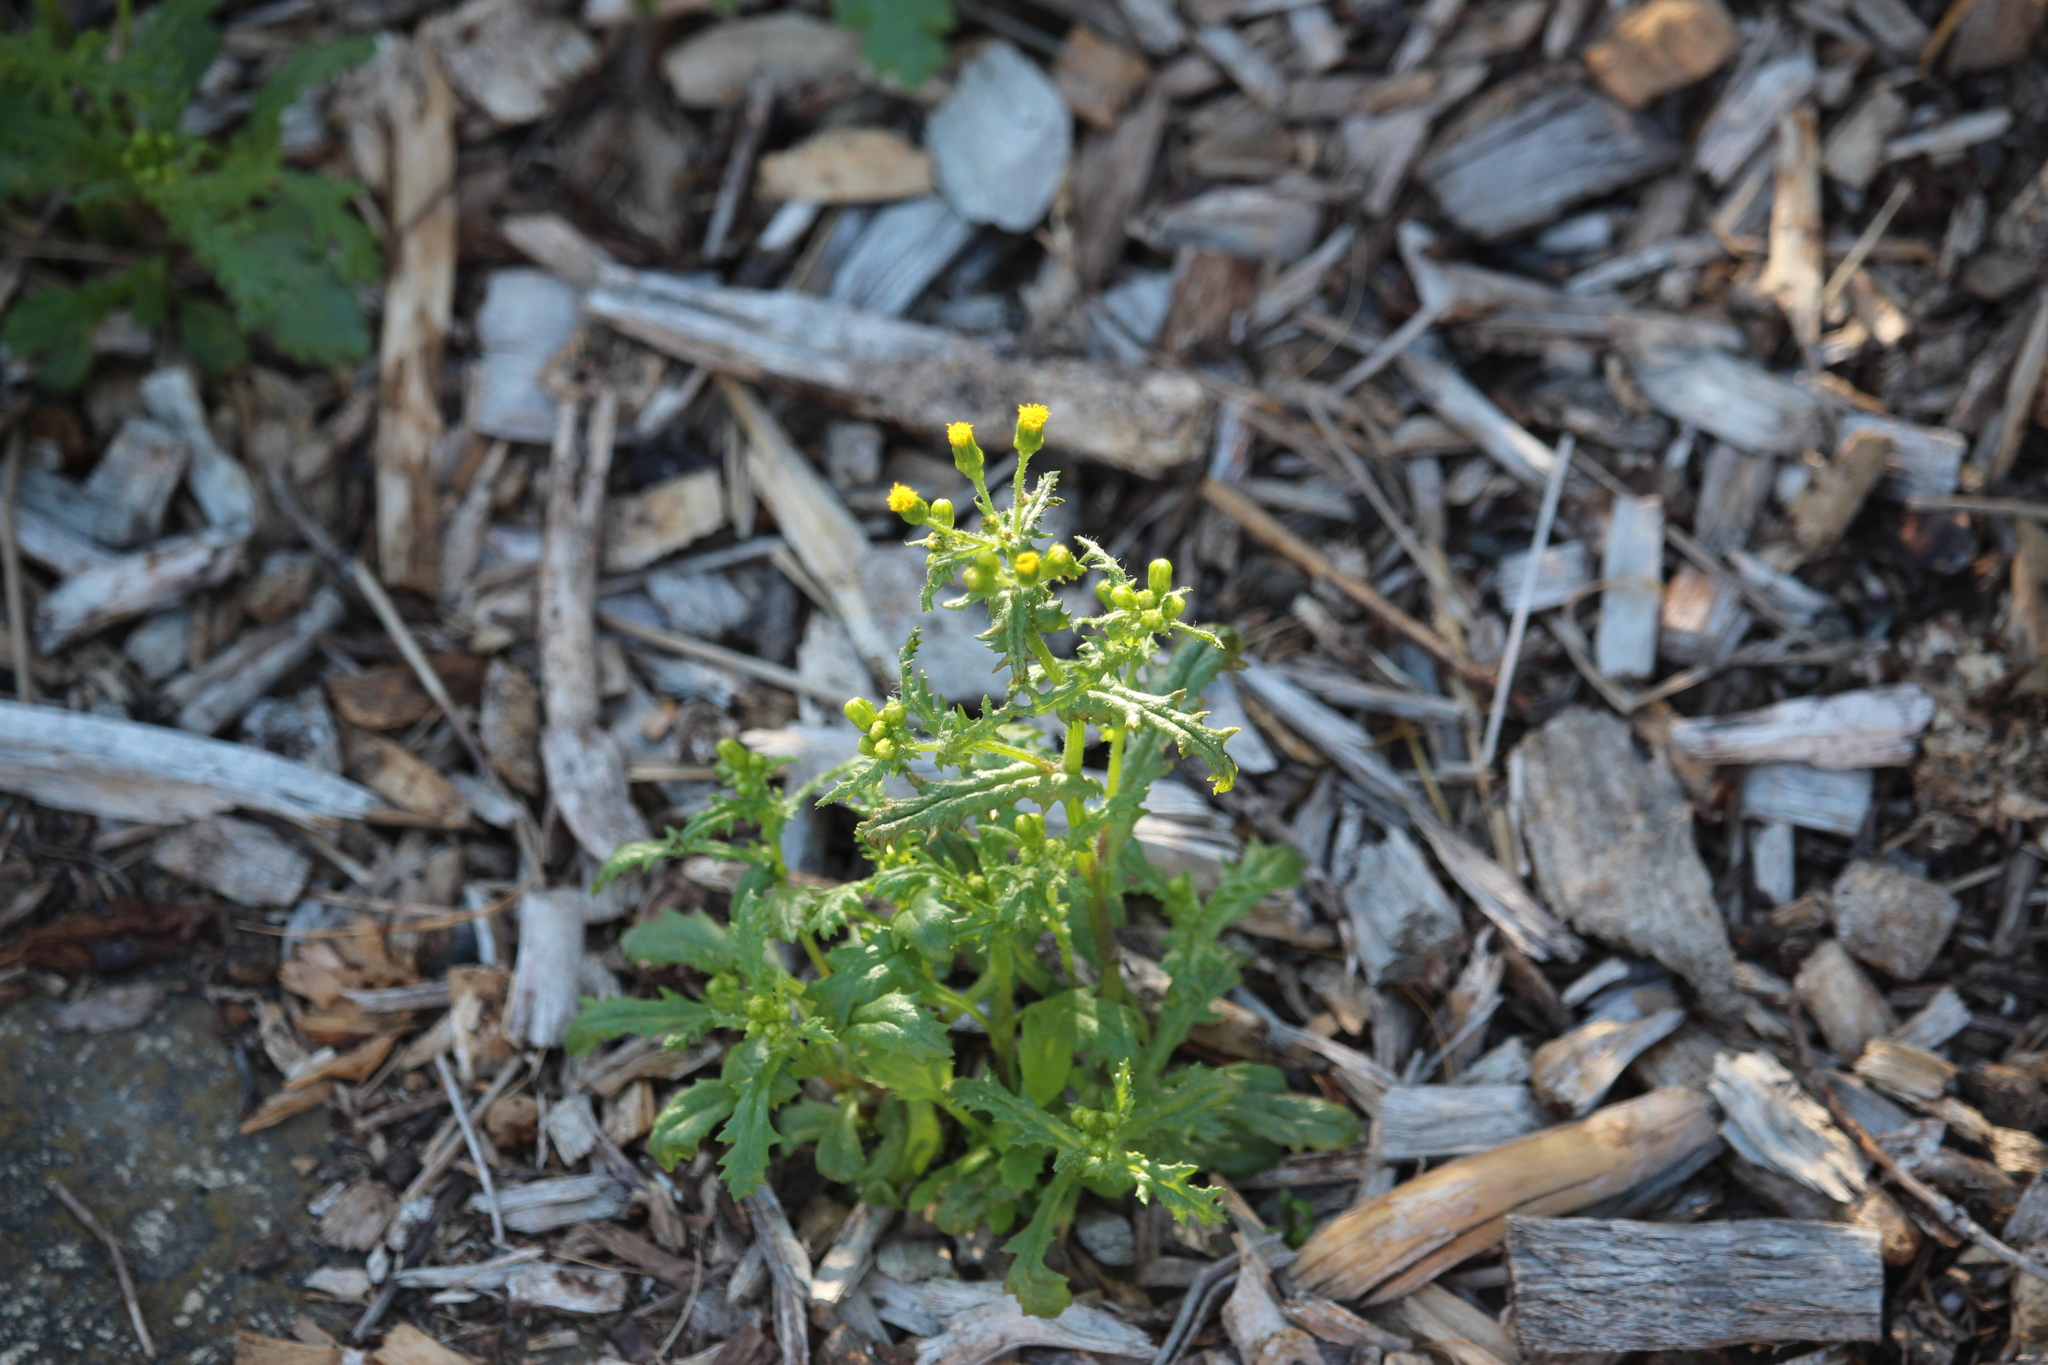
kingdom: Plantae
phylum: Tracheophyta
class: Magnoliopsida
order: Asterales
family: Asteraceae
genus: Senecio
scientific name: Senecio vulgaris
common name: Old-man-in-the-spring
